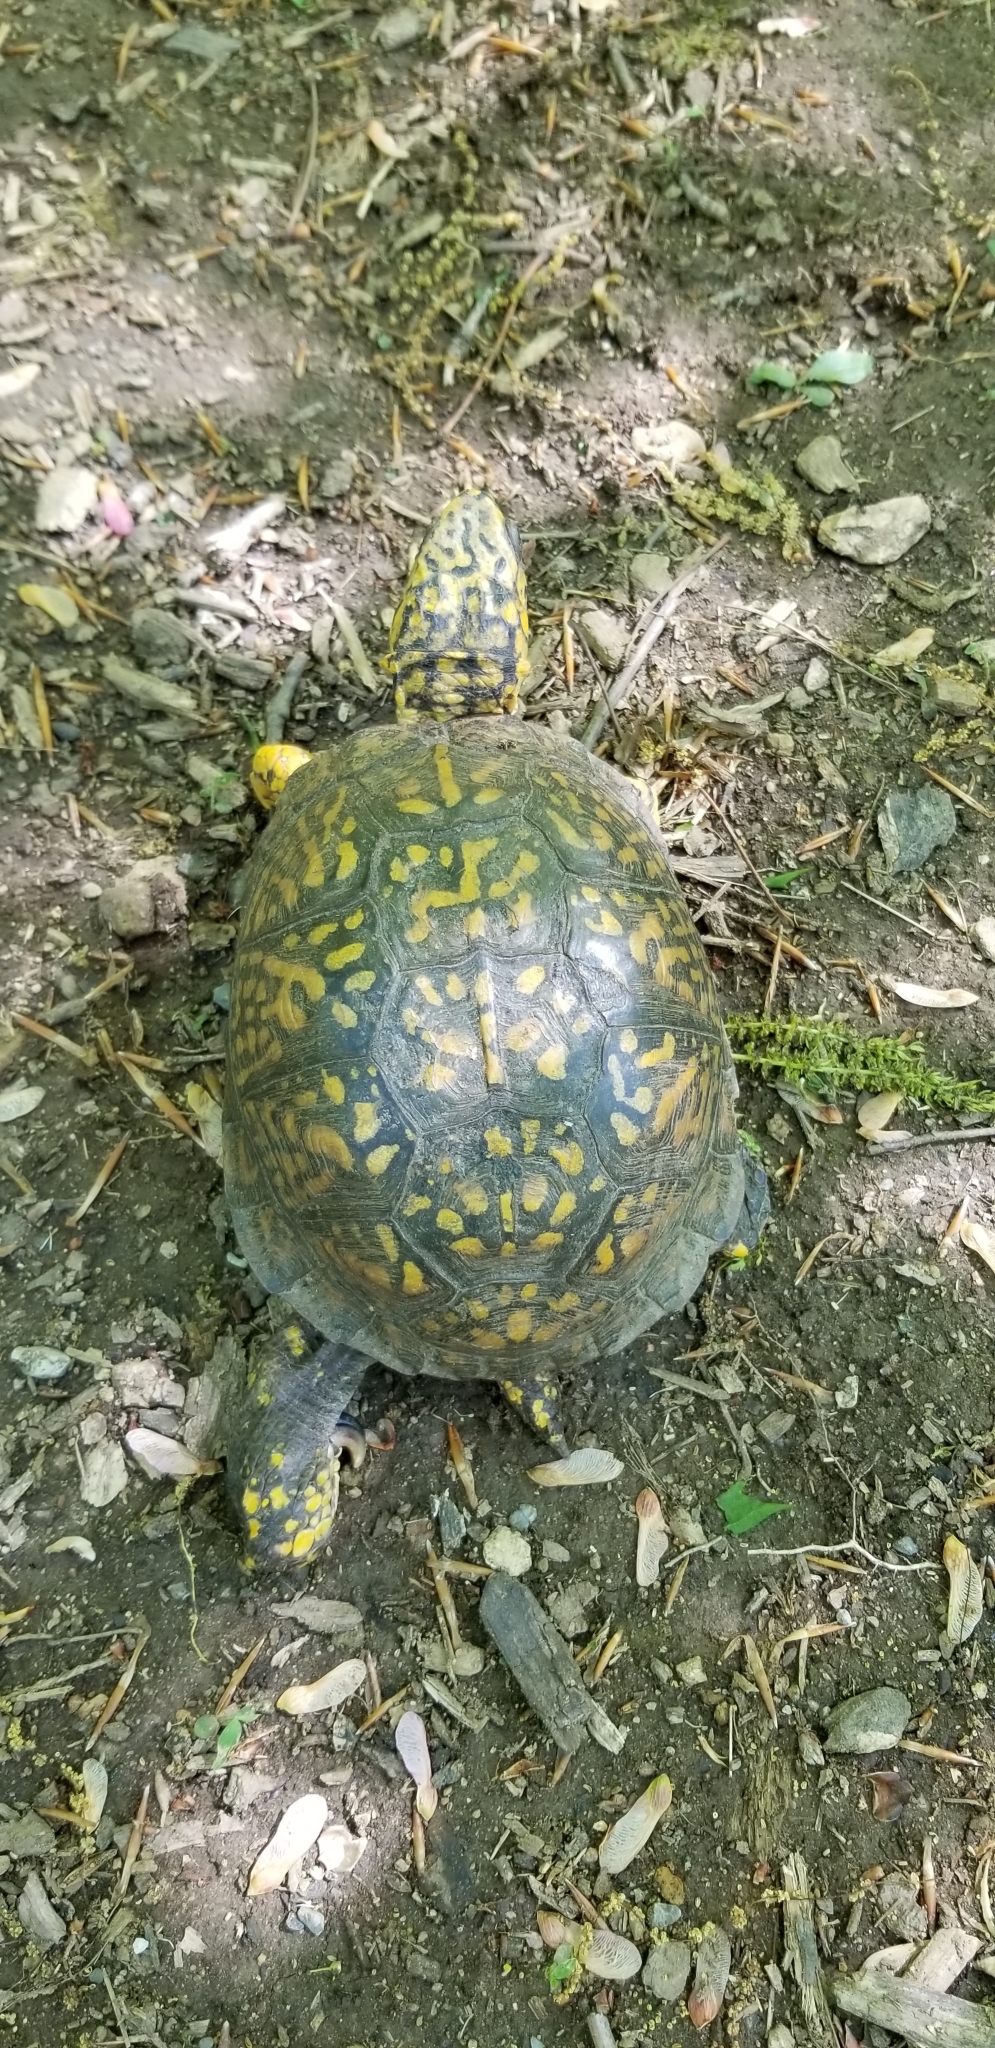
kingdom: Animalia
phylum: Chordata
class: Testudines
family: Emydidae
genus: Terrapene
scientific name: Terrapene carolina
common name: Common box turtle
